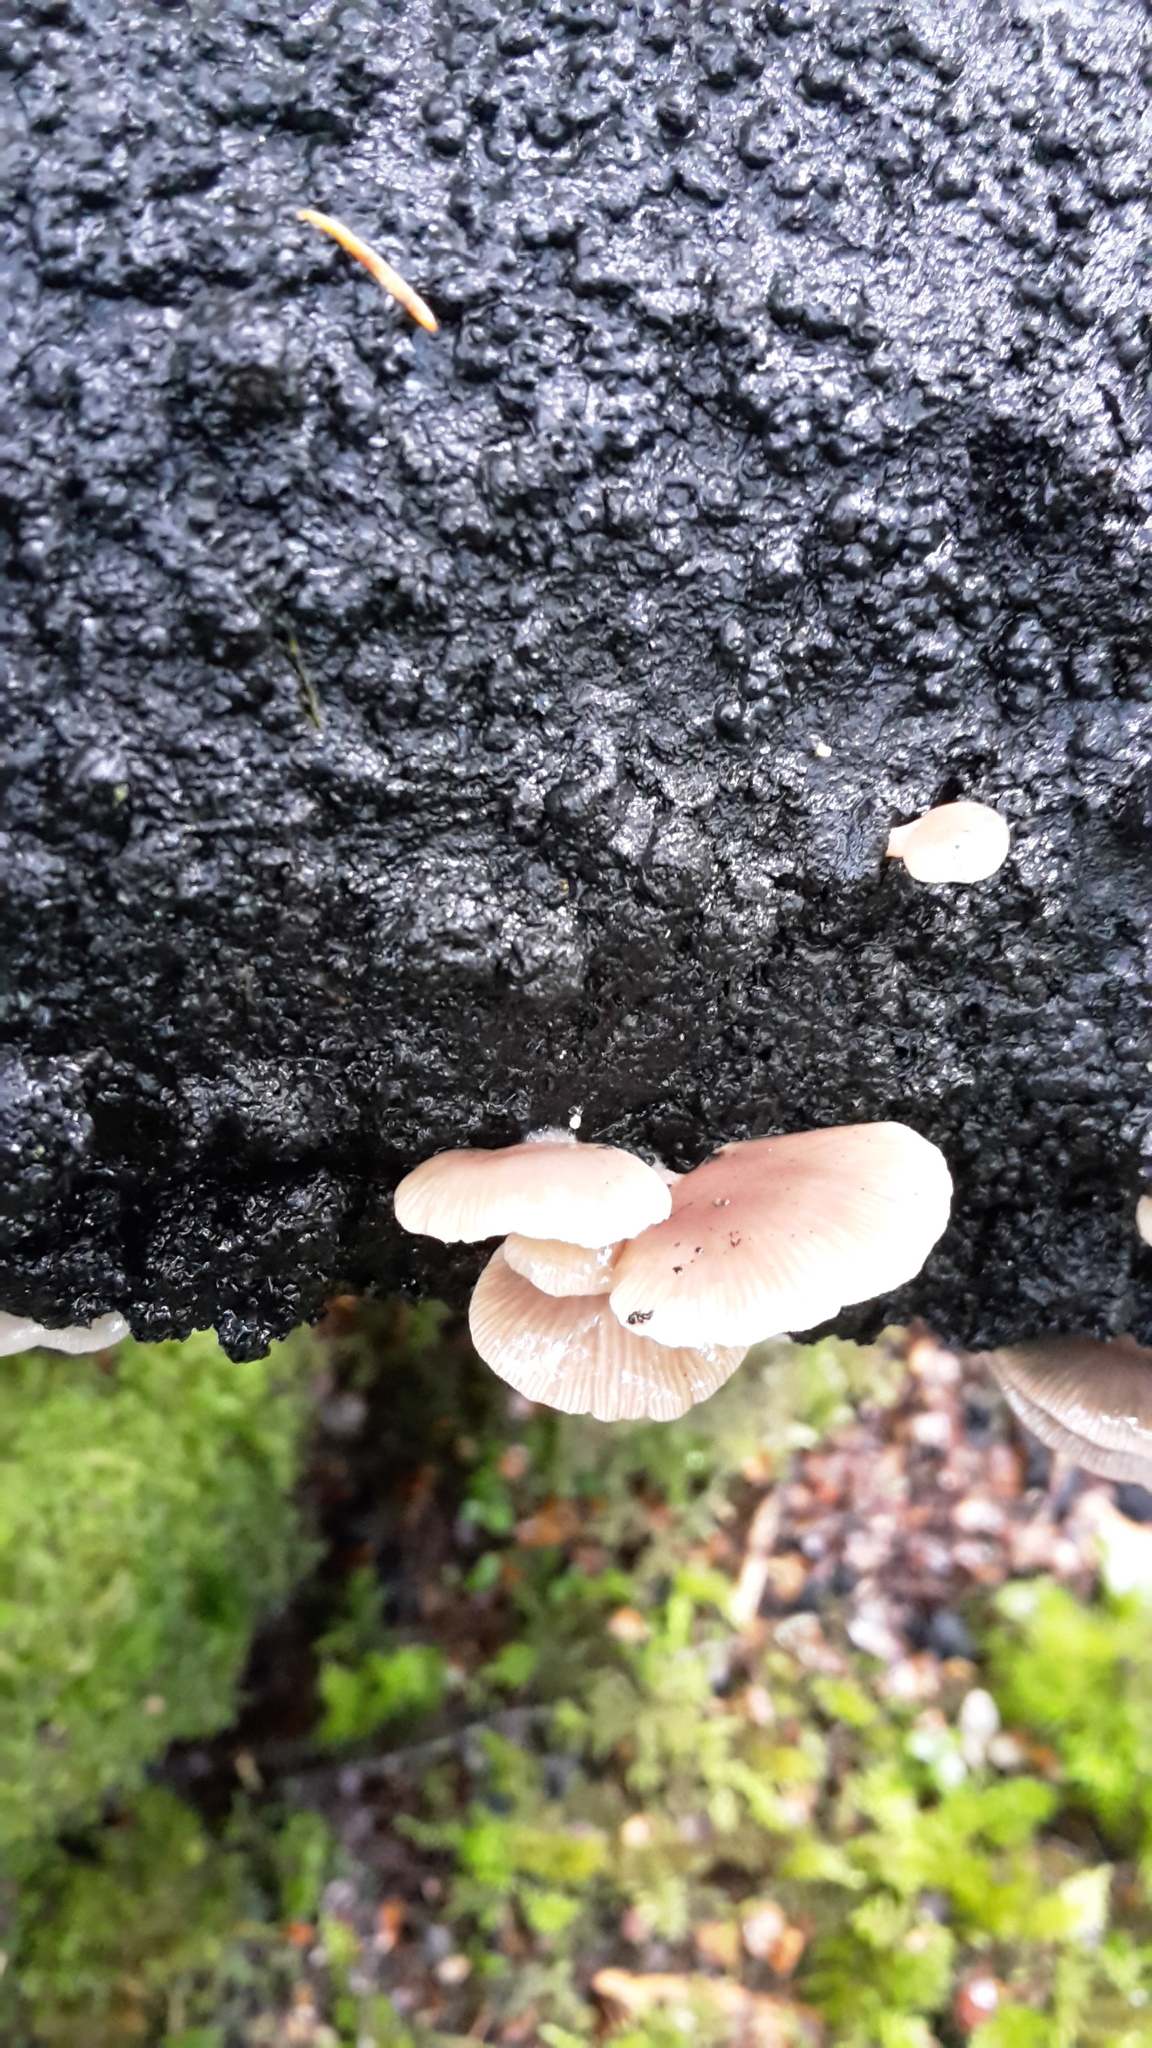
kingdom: Fungi
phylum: Basidiomycota
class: Agaricomycetes
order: Agaricales
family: Mycenaceae
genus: Panellus
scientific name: Panellus longinquus
